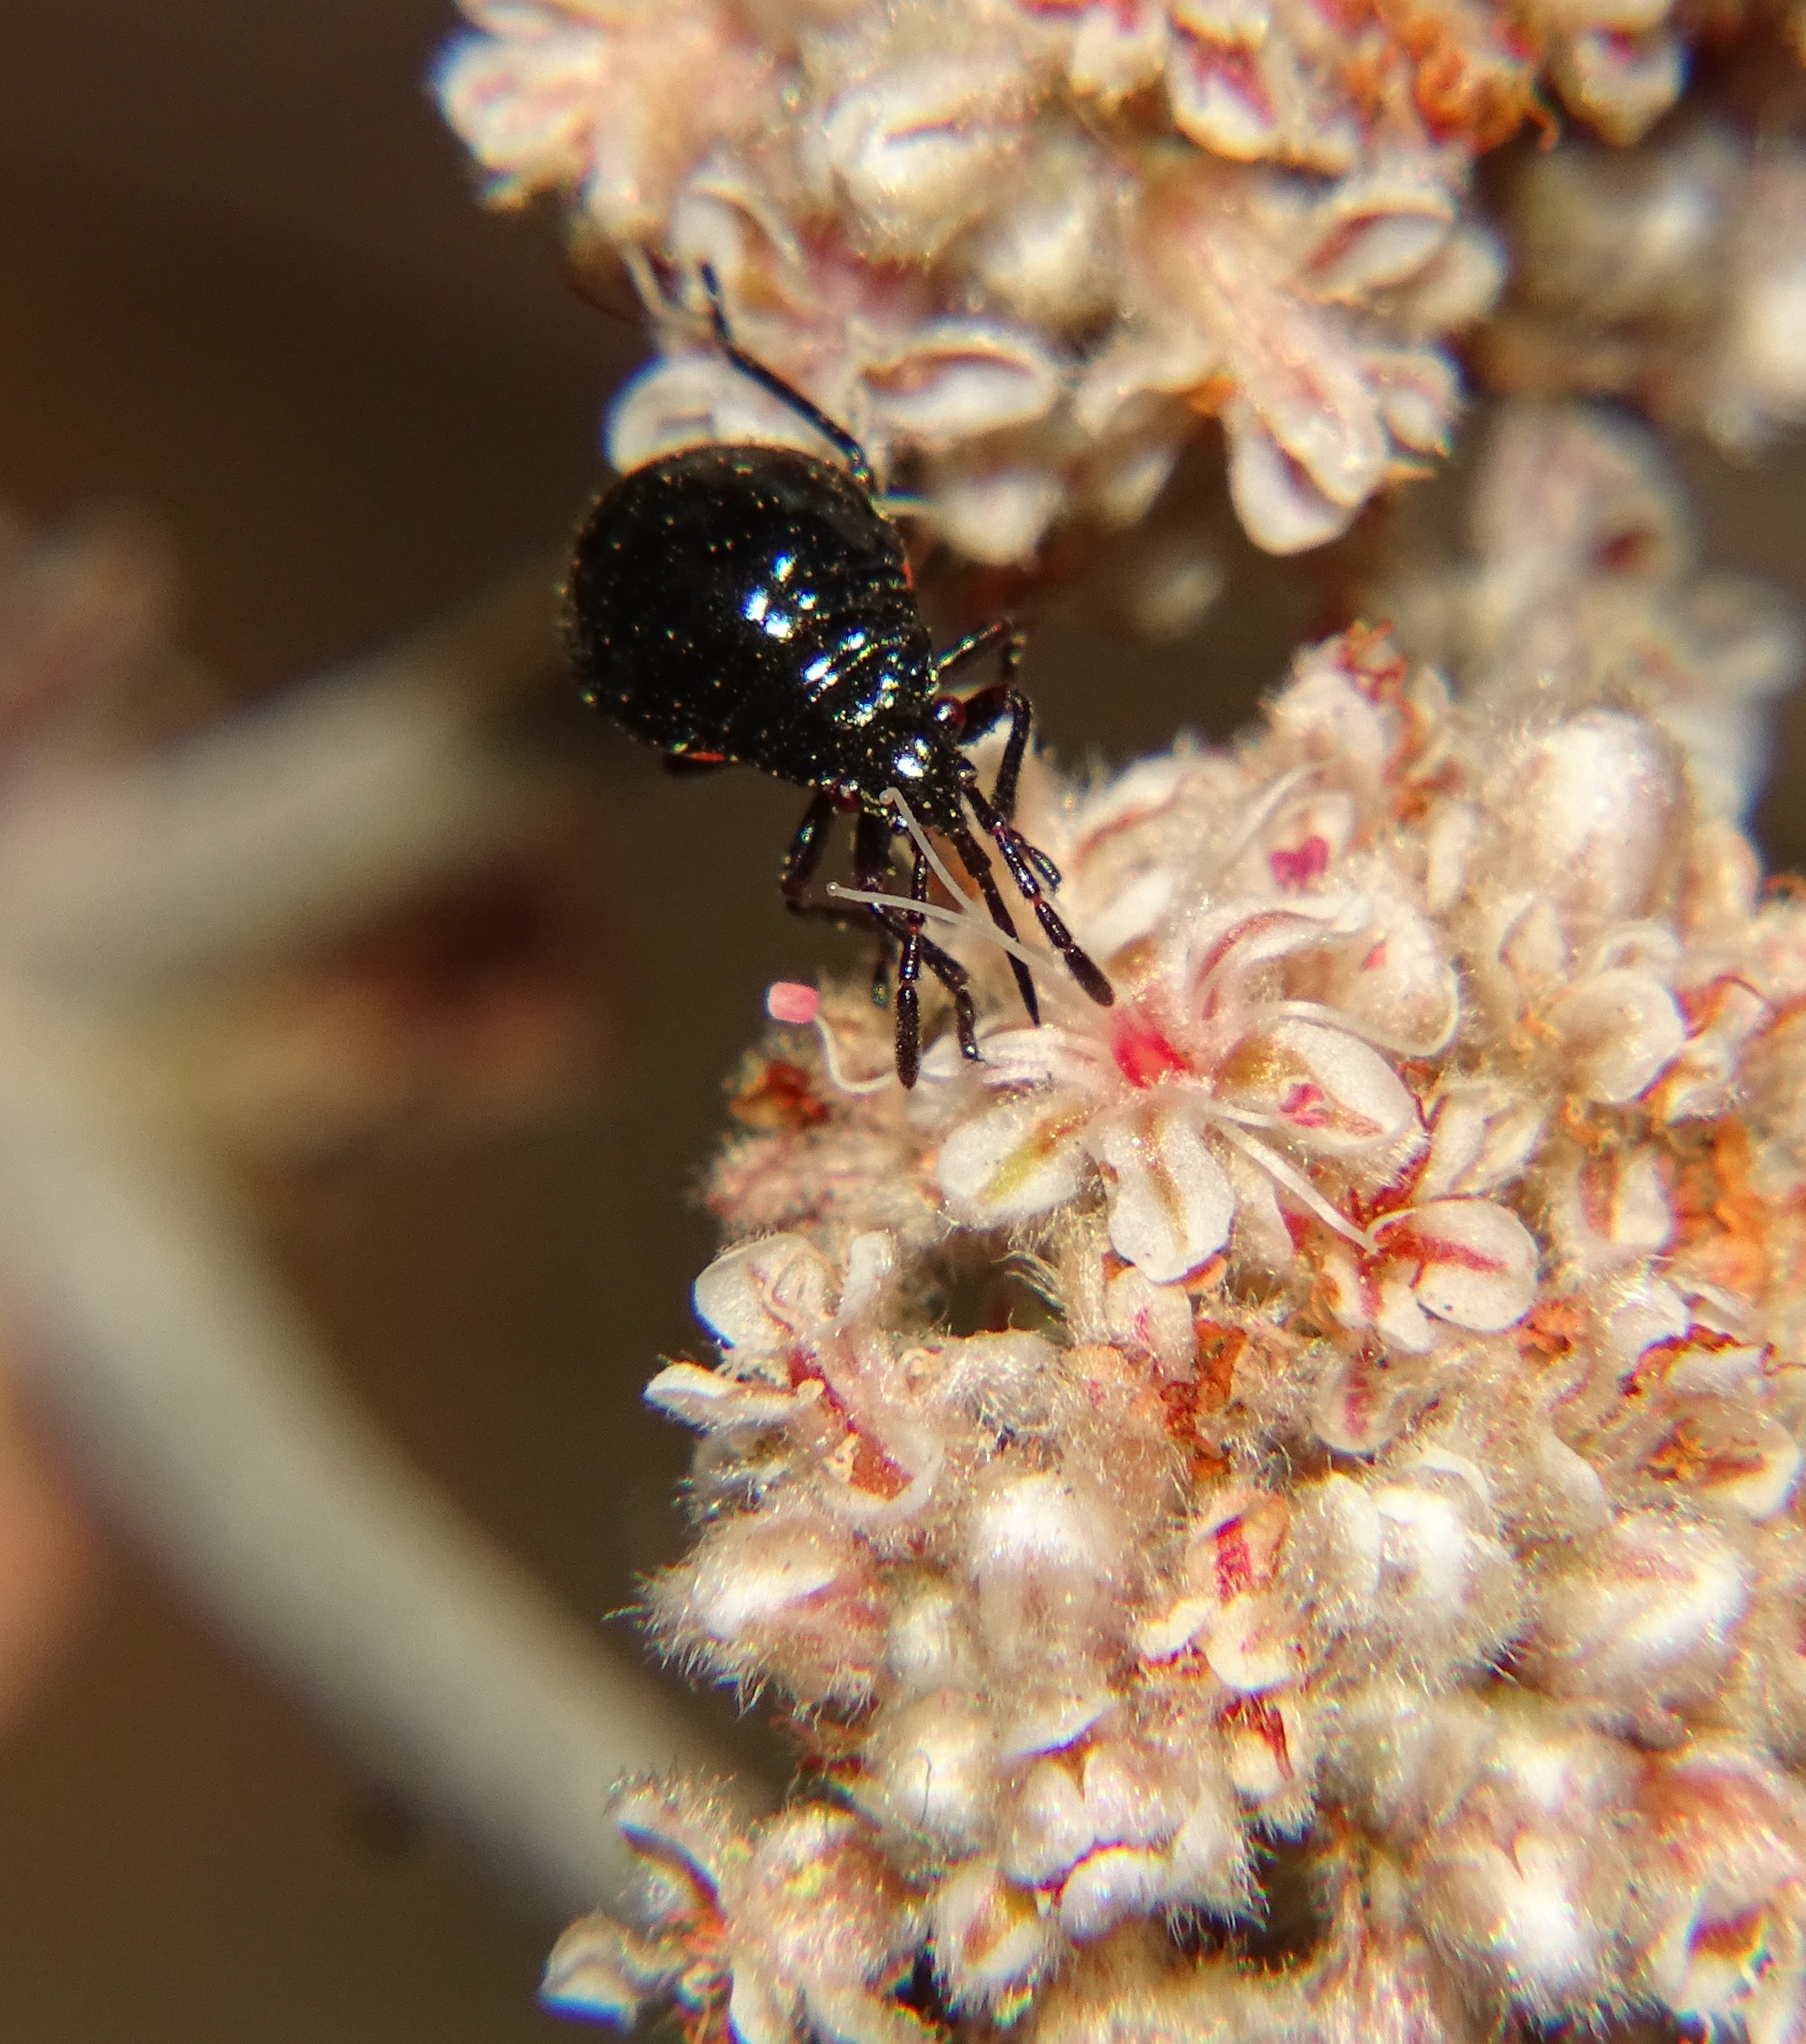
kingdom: Animalia
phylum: Arthropoda
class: Insecta
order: Hemiptera
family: Largidae
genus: Largus
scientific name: Largus californicus
